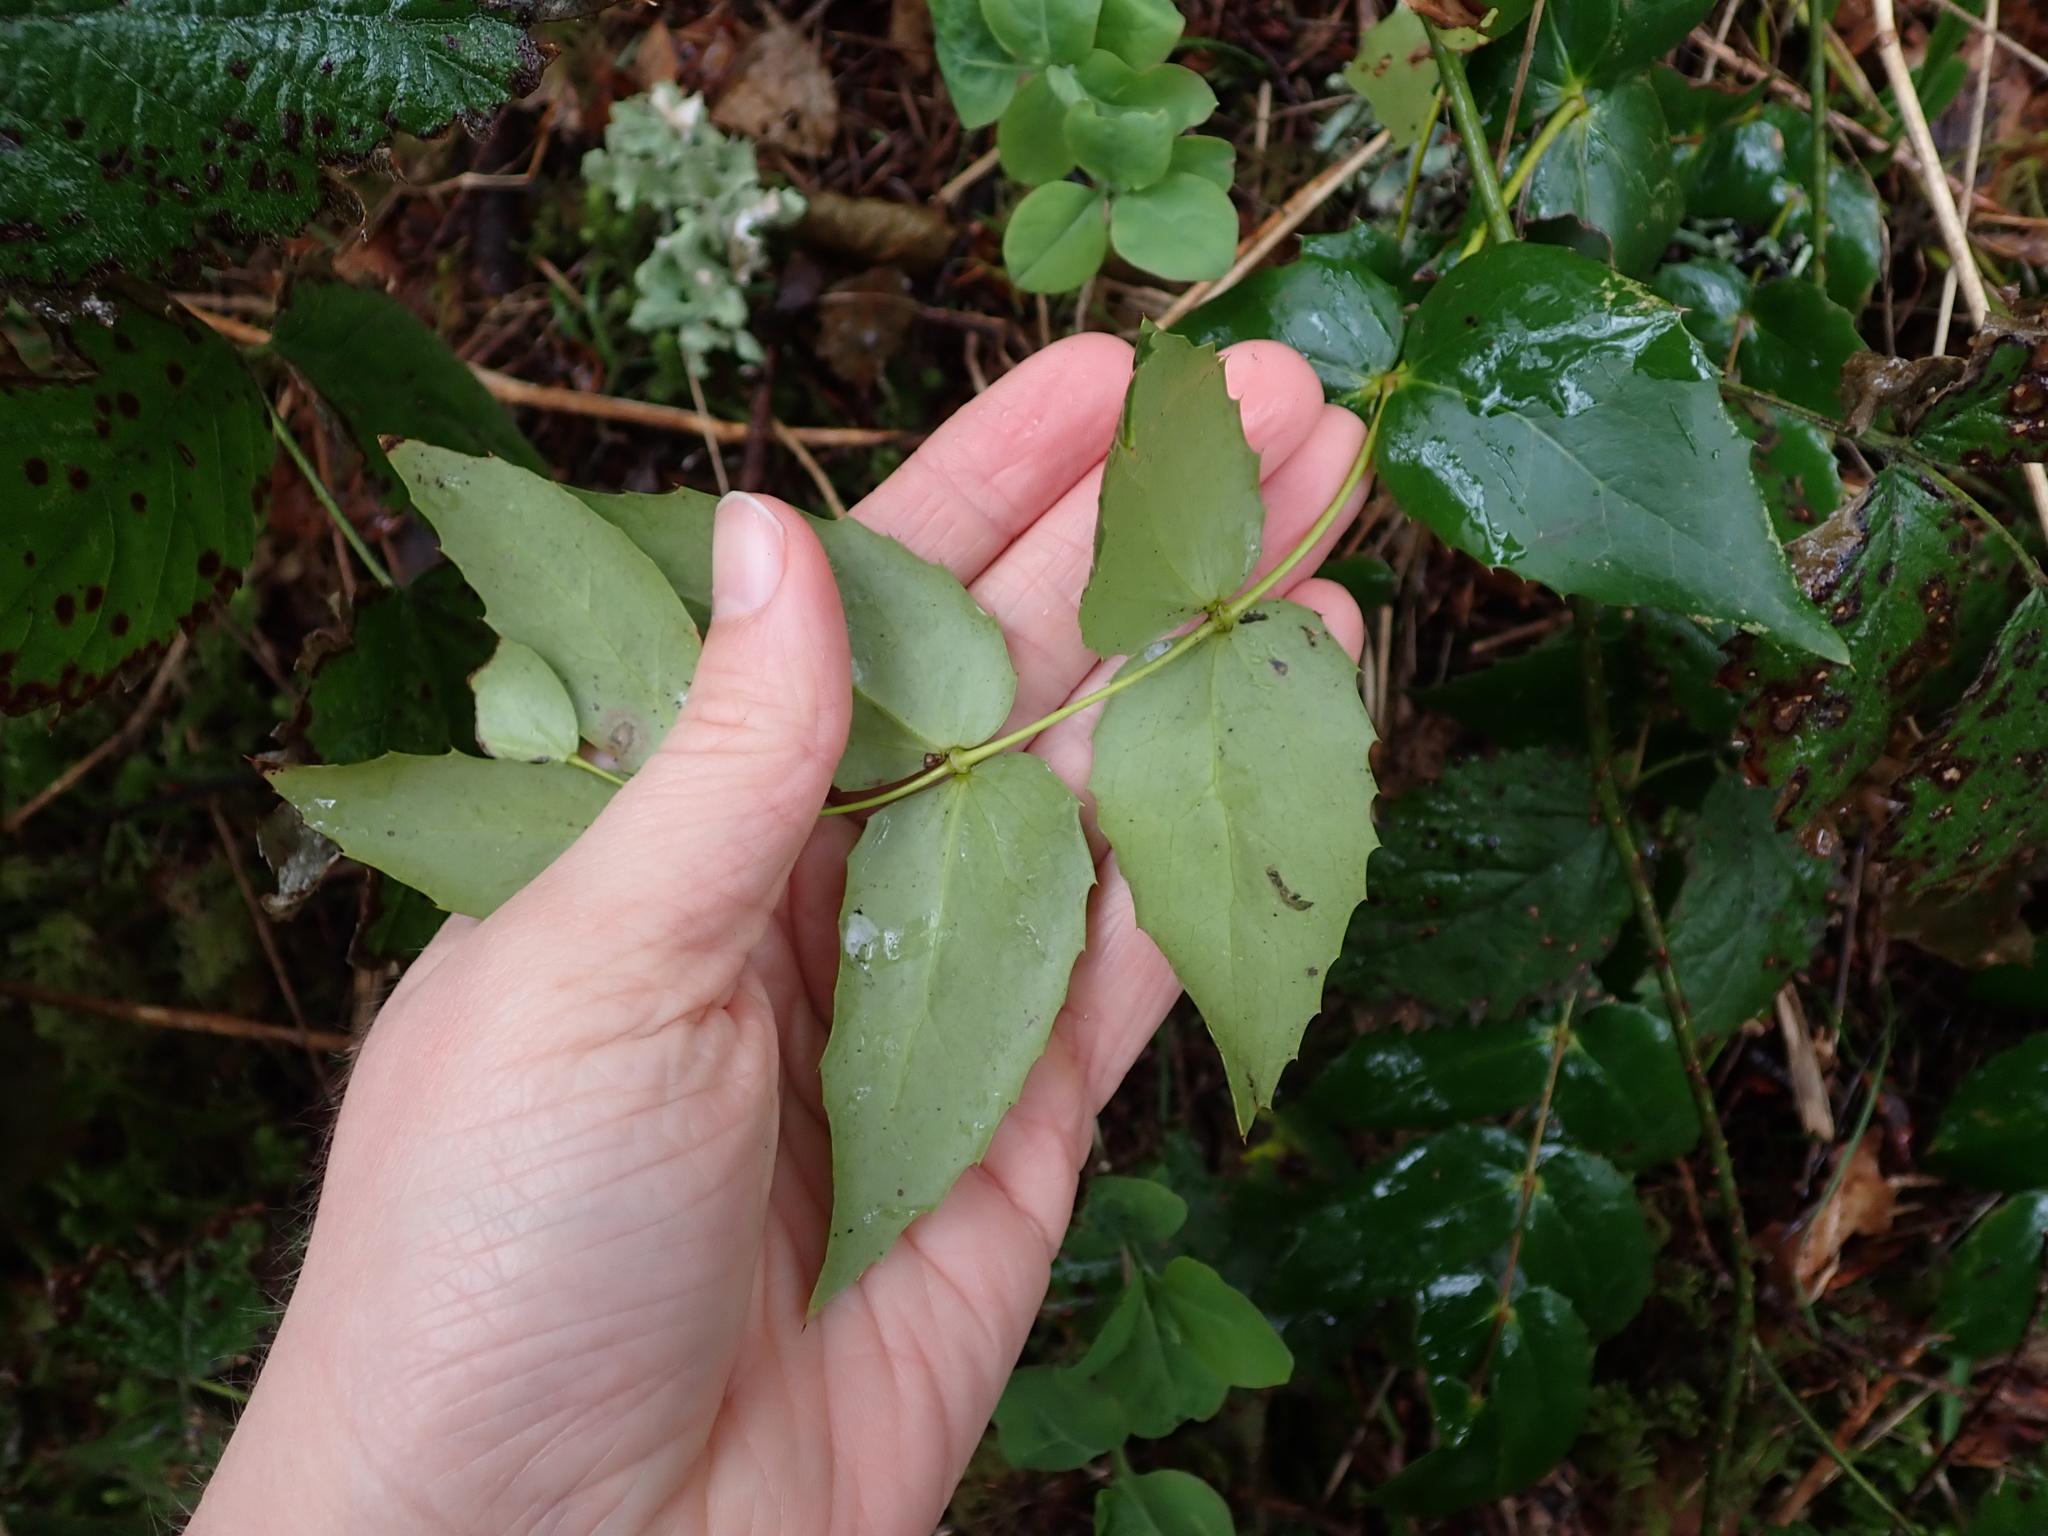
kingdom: Plantae
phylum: Tracheophyta
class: Magnoliopsida
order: Ranunculales
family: Berberidaceae
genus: Mahonia
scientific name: Mahonia nervosa
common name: Cascade oregon-grape
